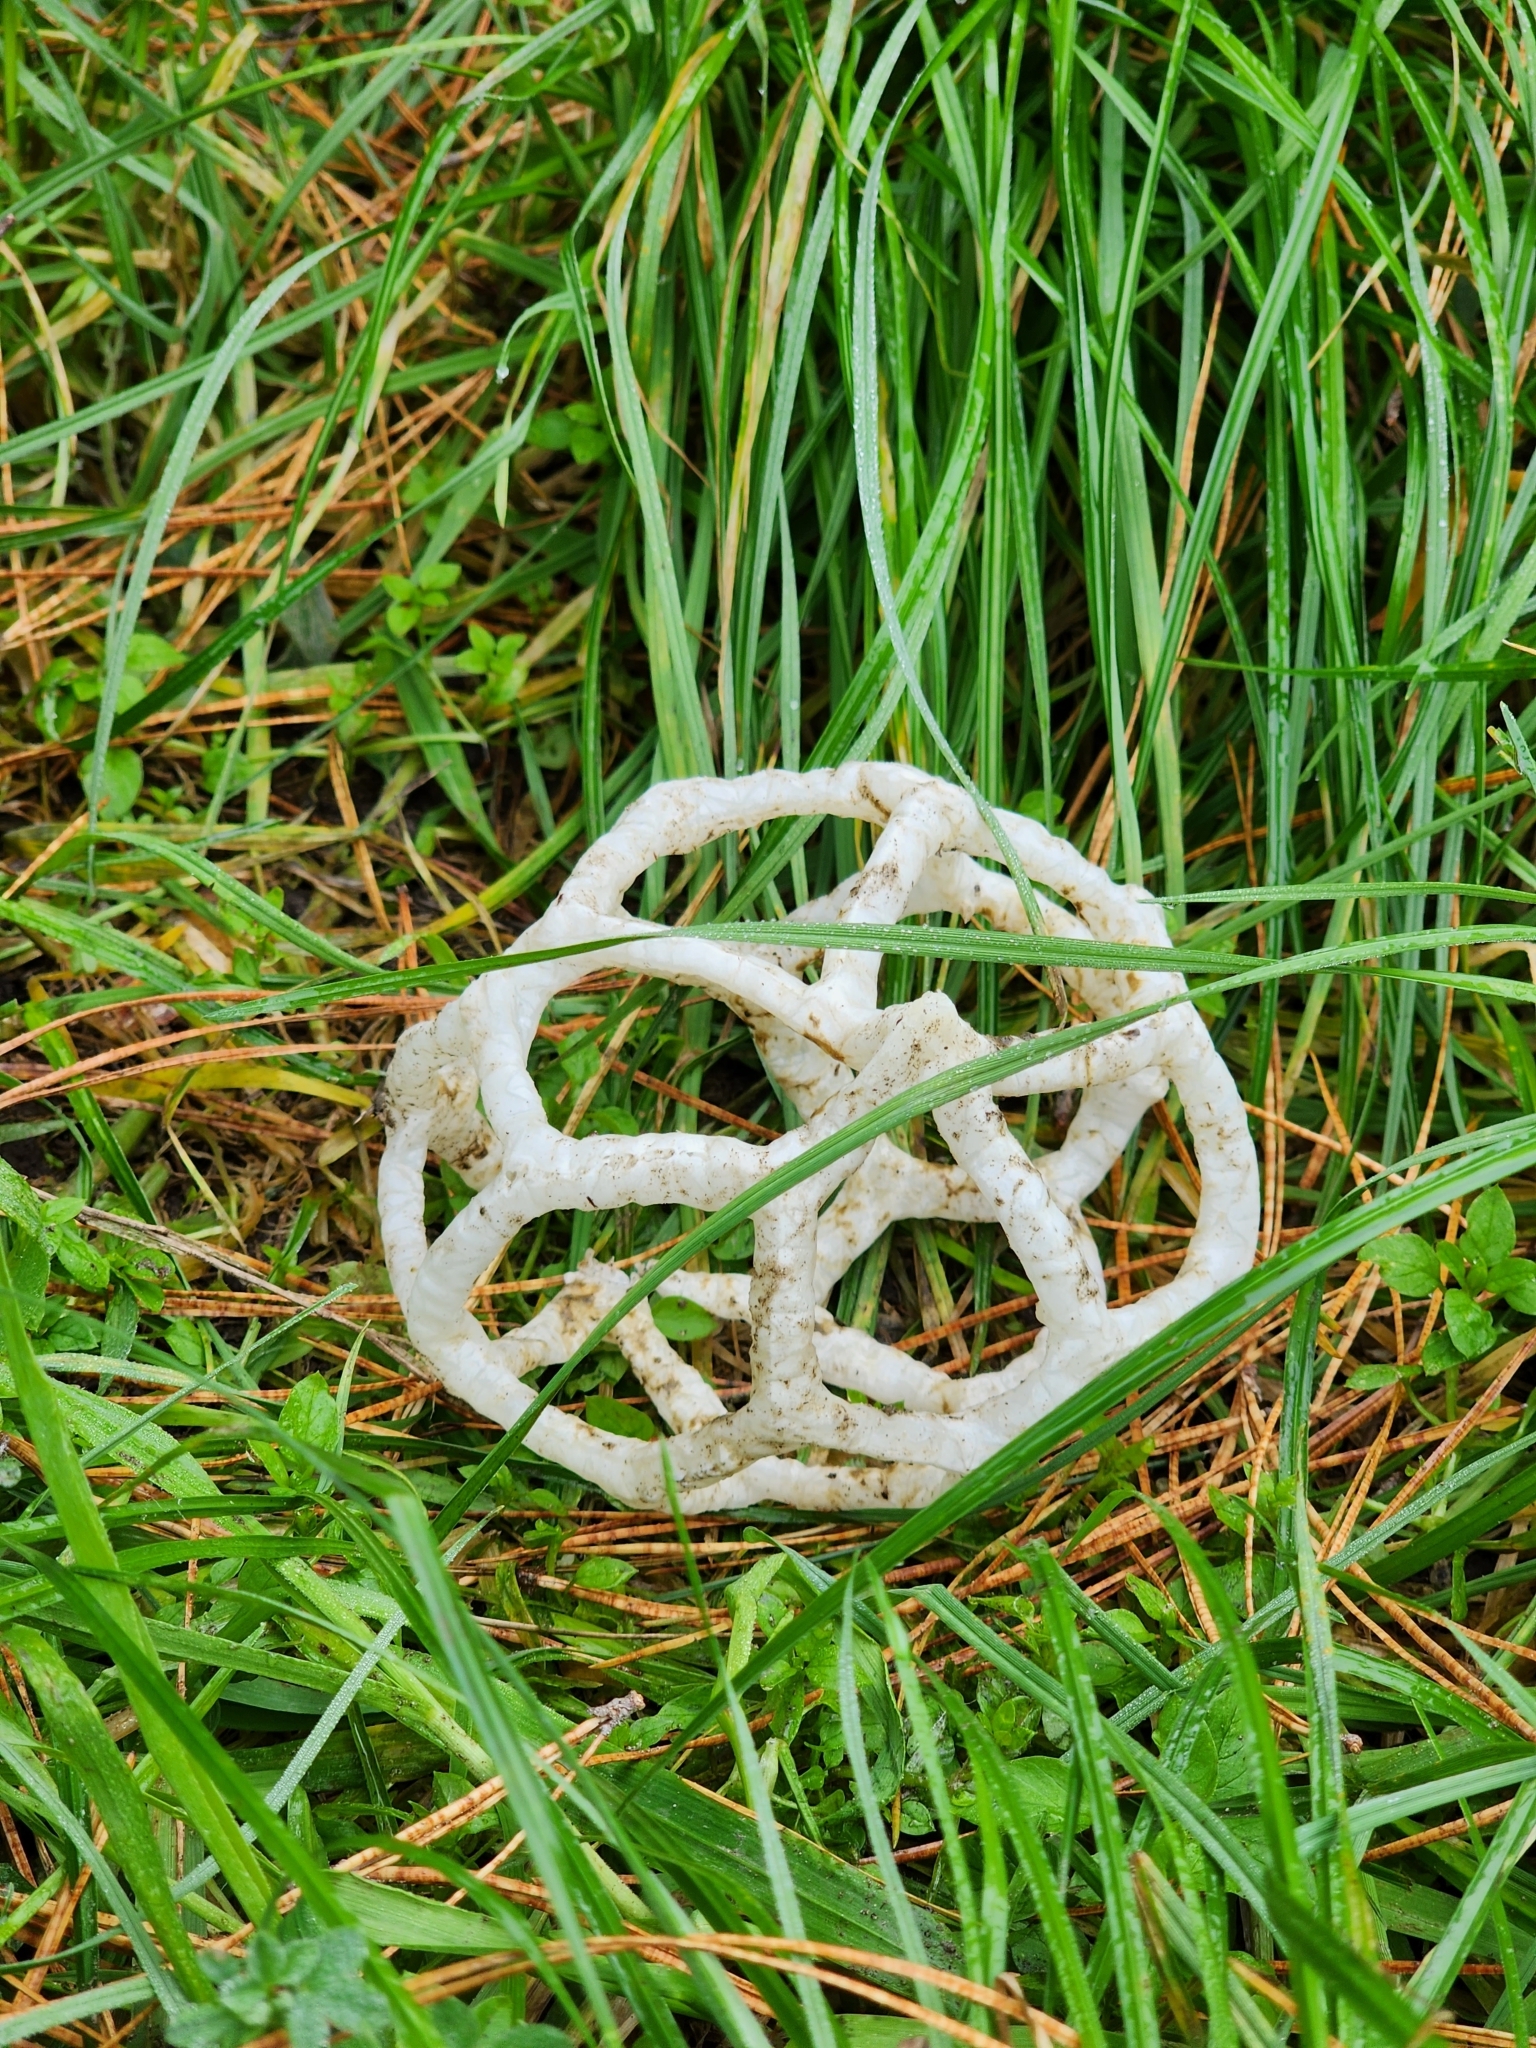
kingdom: Fungi
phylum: Basidiomycota
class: Agaricomycetes
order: Phallales
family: Phallaceae
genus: Ileodictyon
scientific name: Ileodictyon cibarium
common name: Basket fungus
